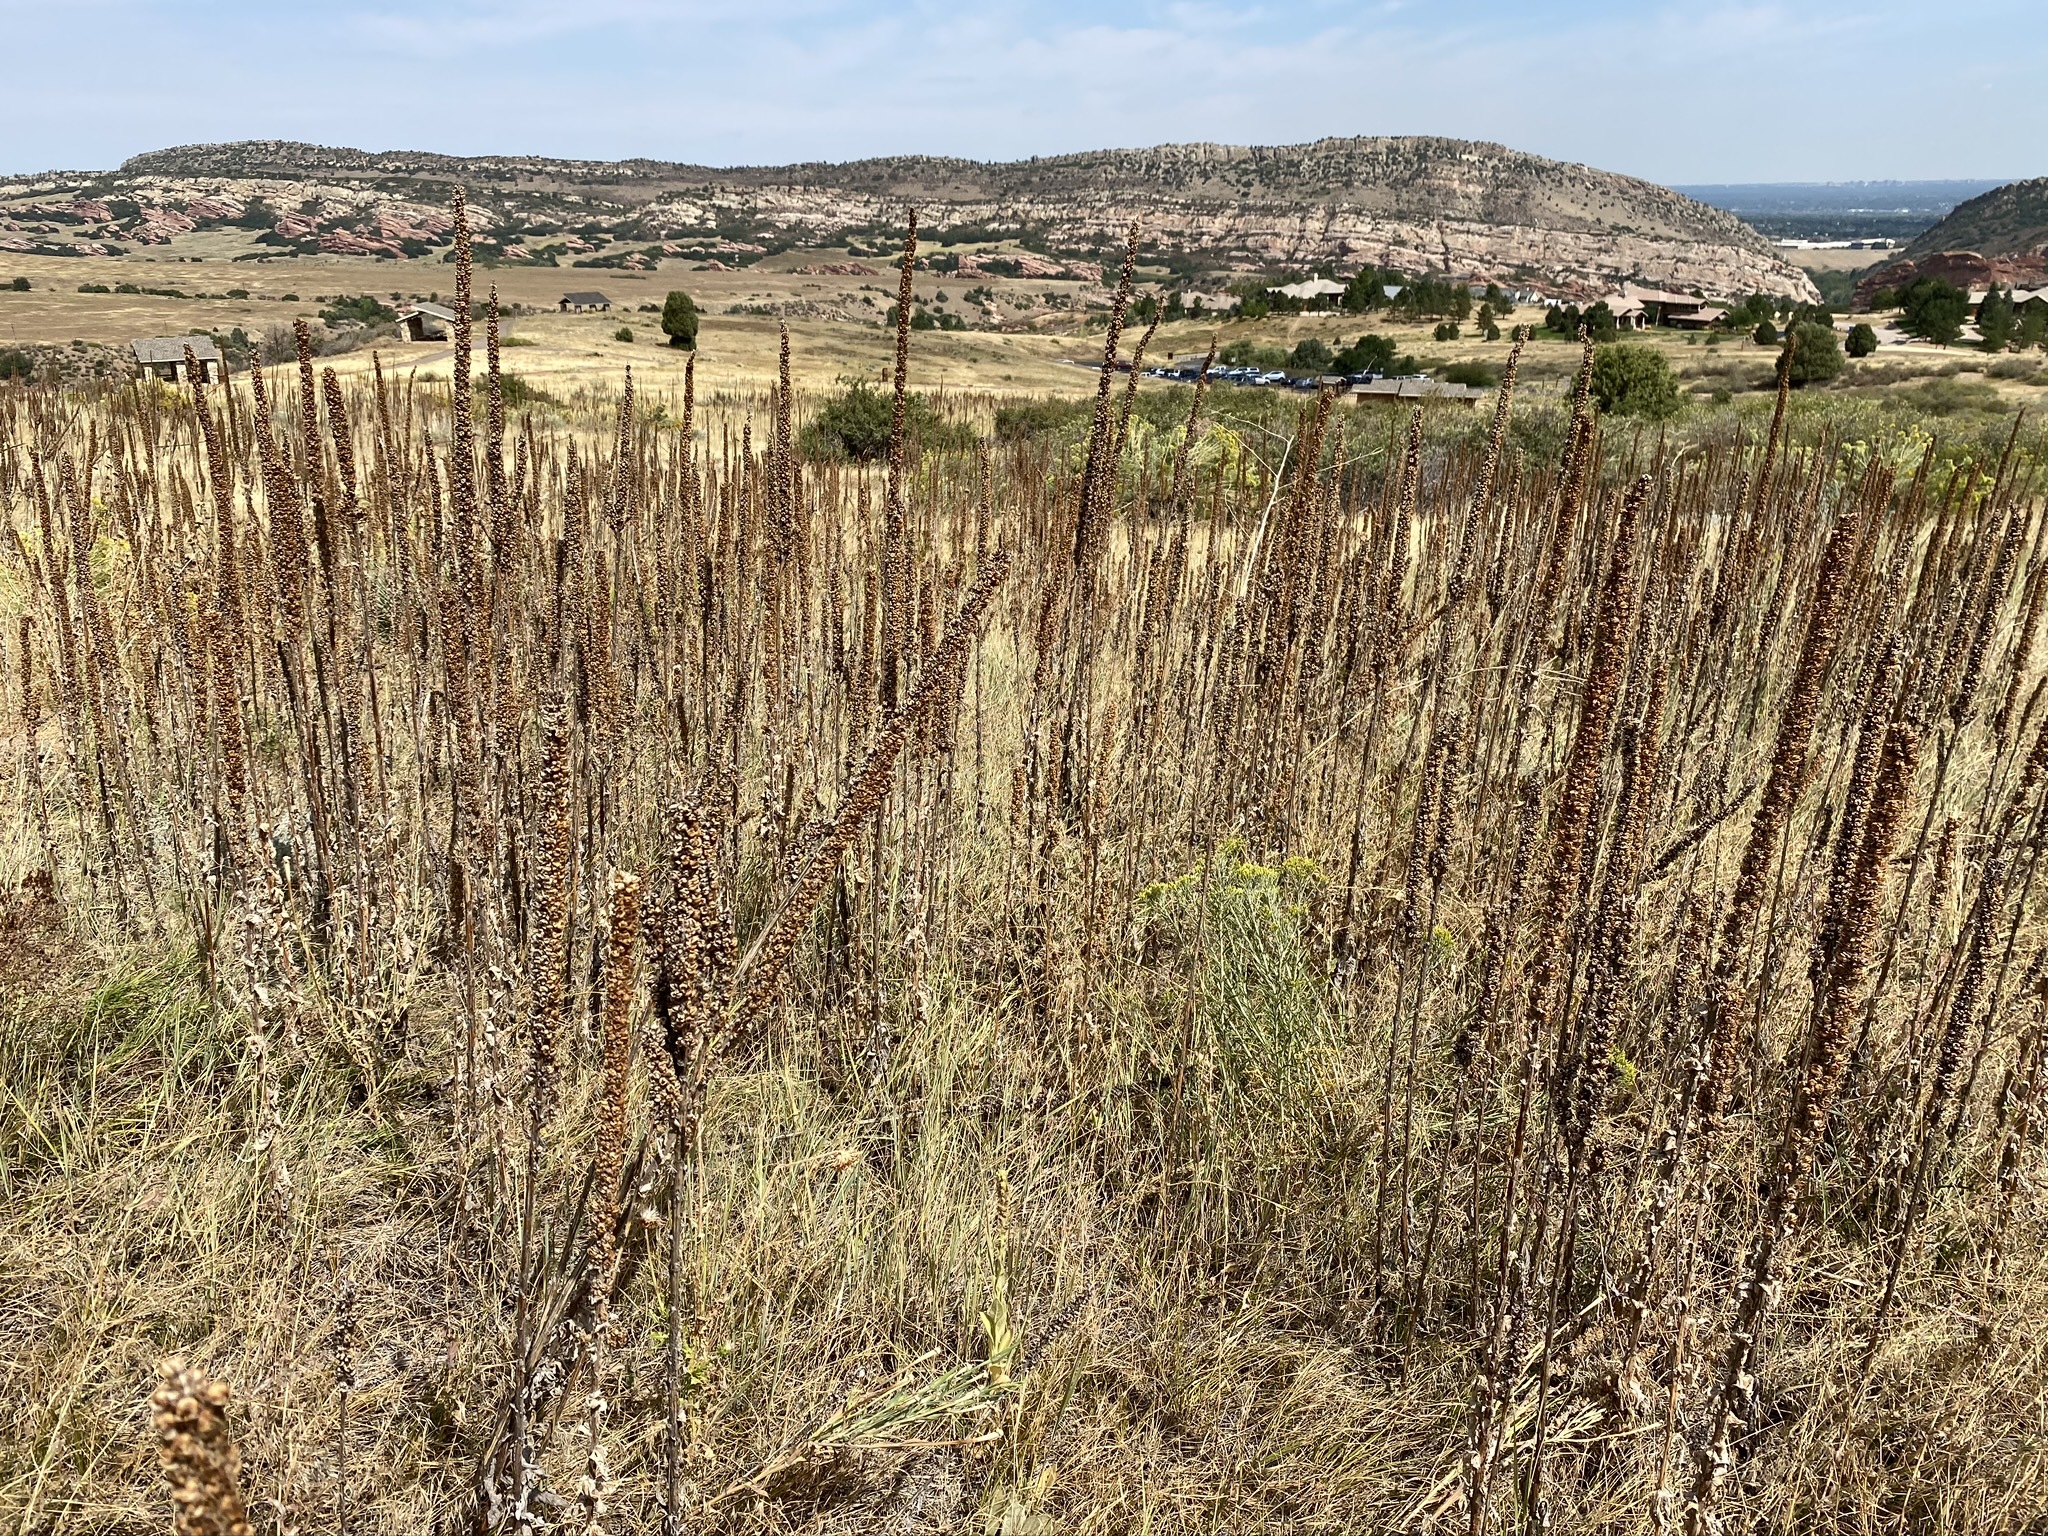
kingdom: Plantae
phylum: Tracheophyta
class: Magnoliopsida
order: Lamiales
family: Scrophulariaceae
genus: Verbascum
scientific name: Verbascum thapsus
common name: Common mullein
